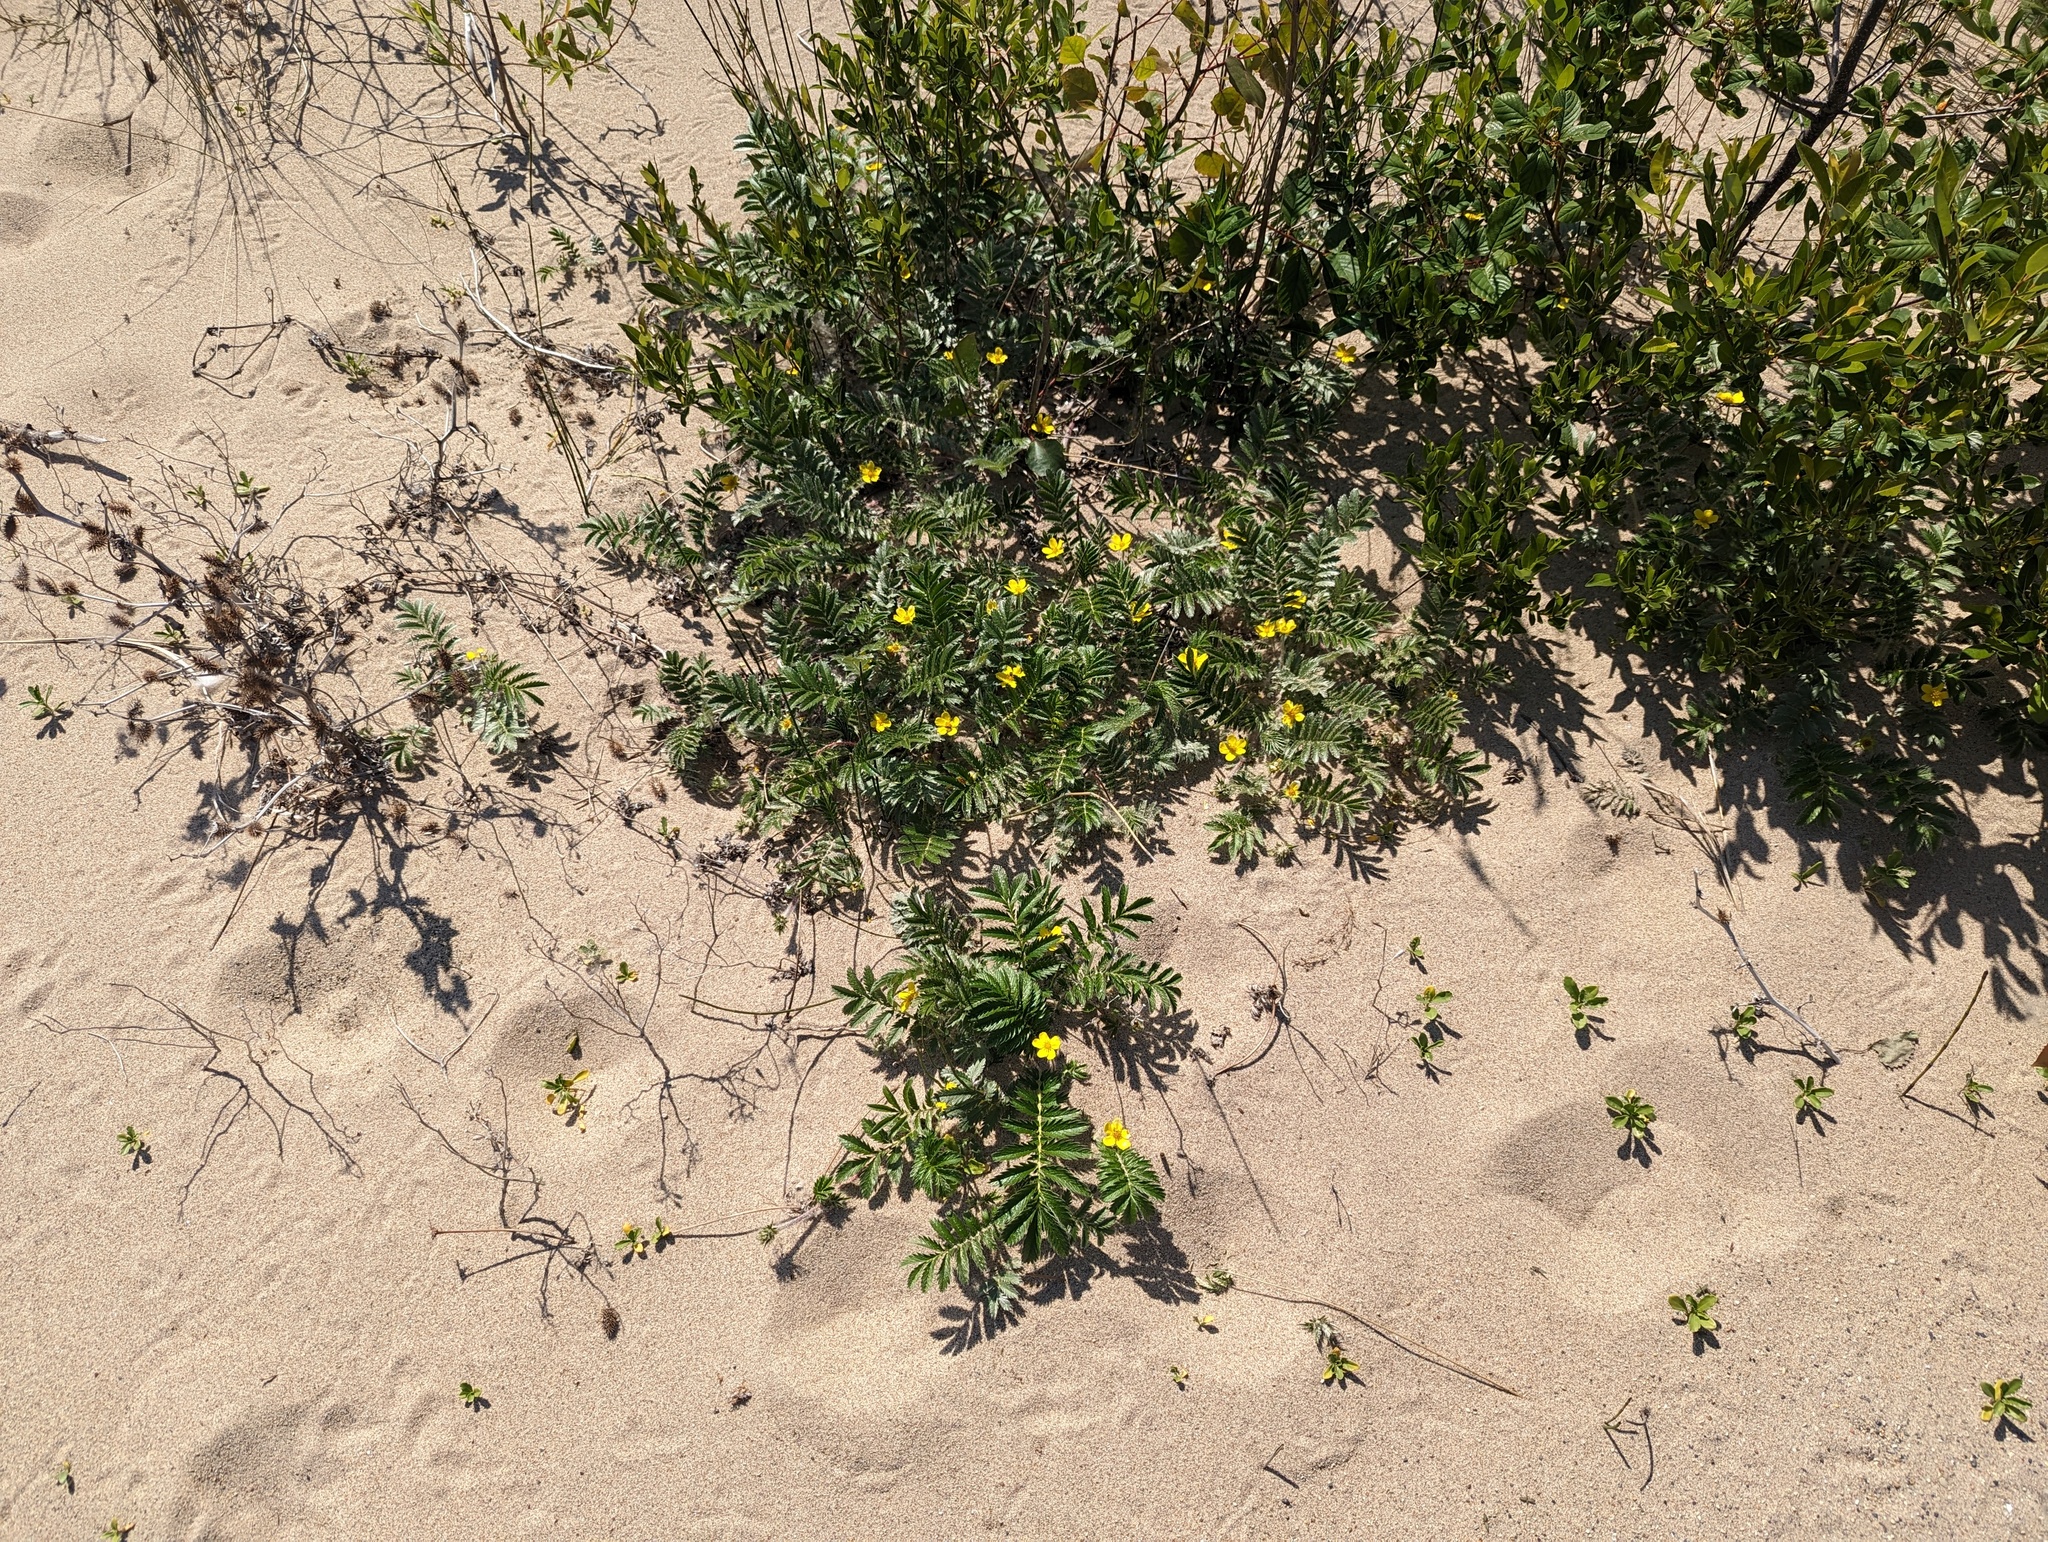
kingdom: Plantae
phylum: Tracheophyta
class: Magnoliopsida
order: Rosales
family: Rosaceae
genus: Argentina
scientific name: Argentina anserina
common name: Common silverweed
